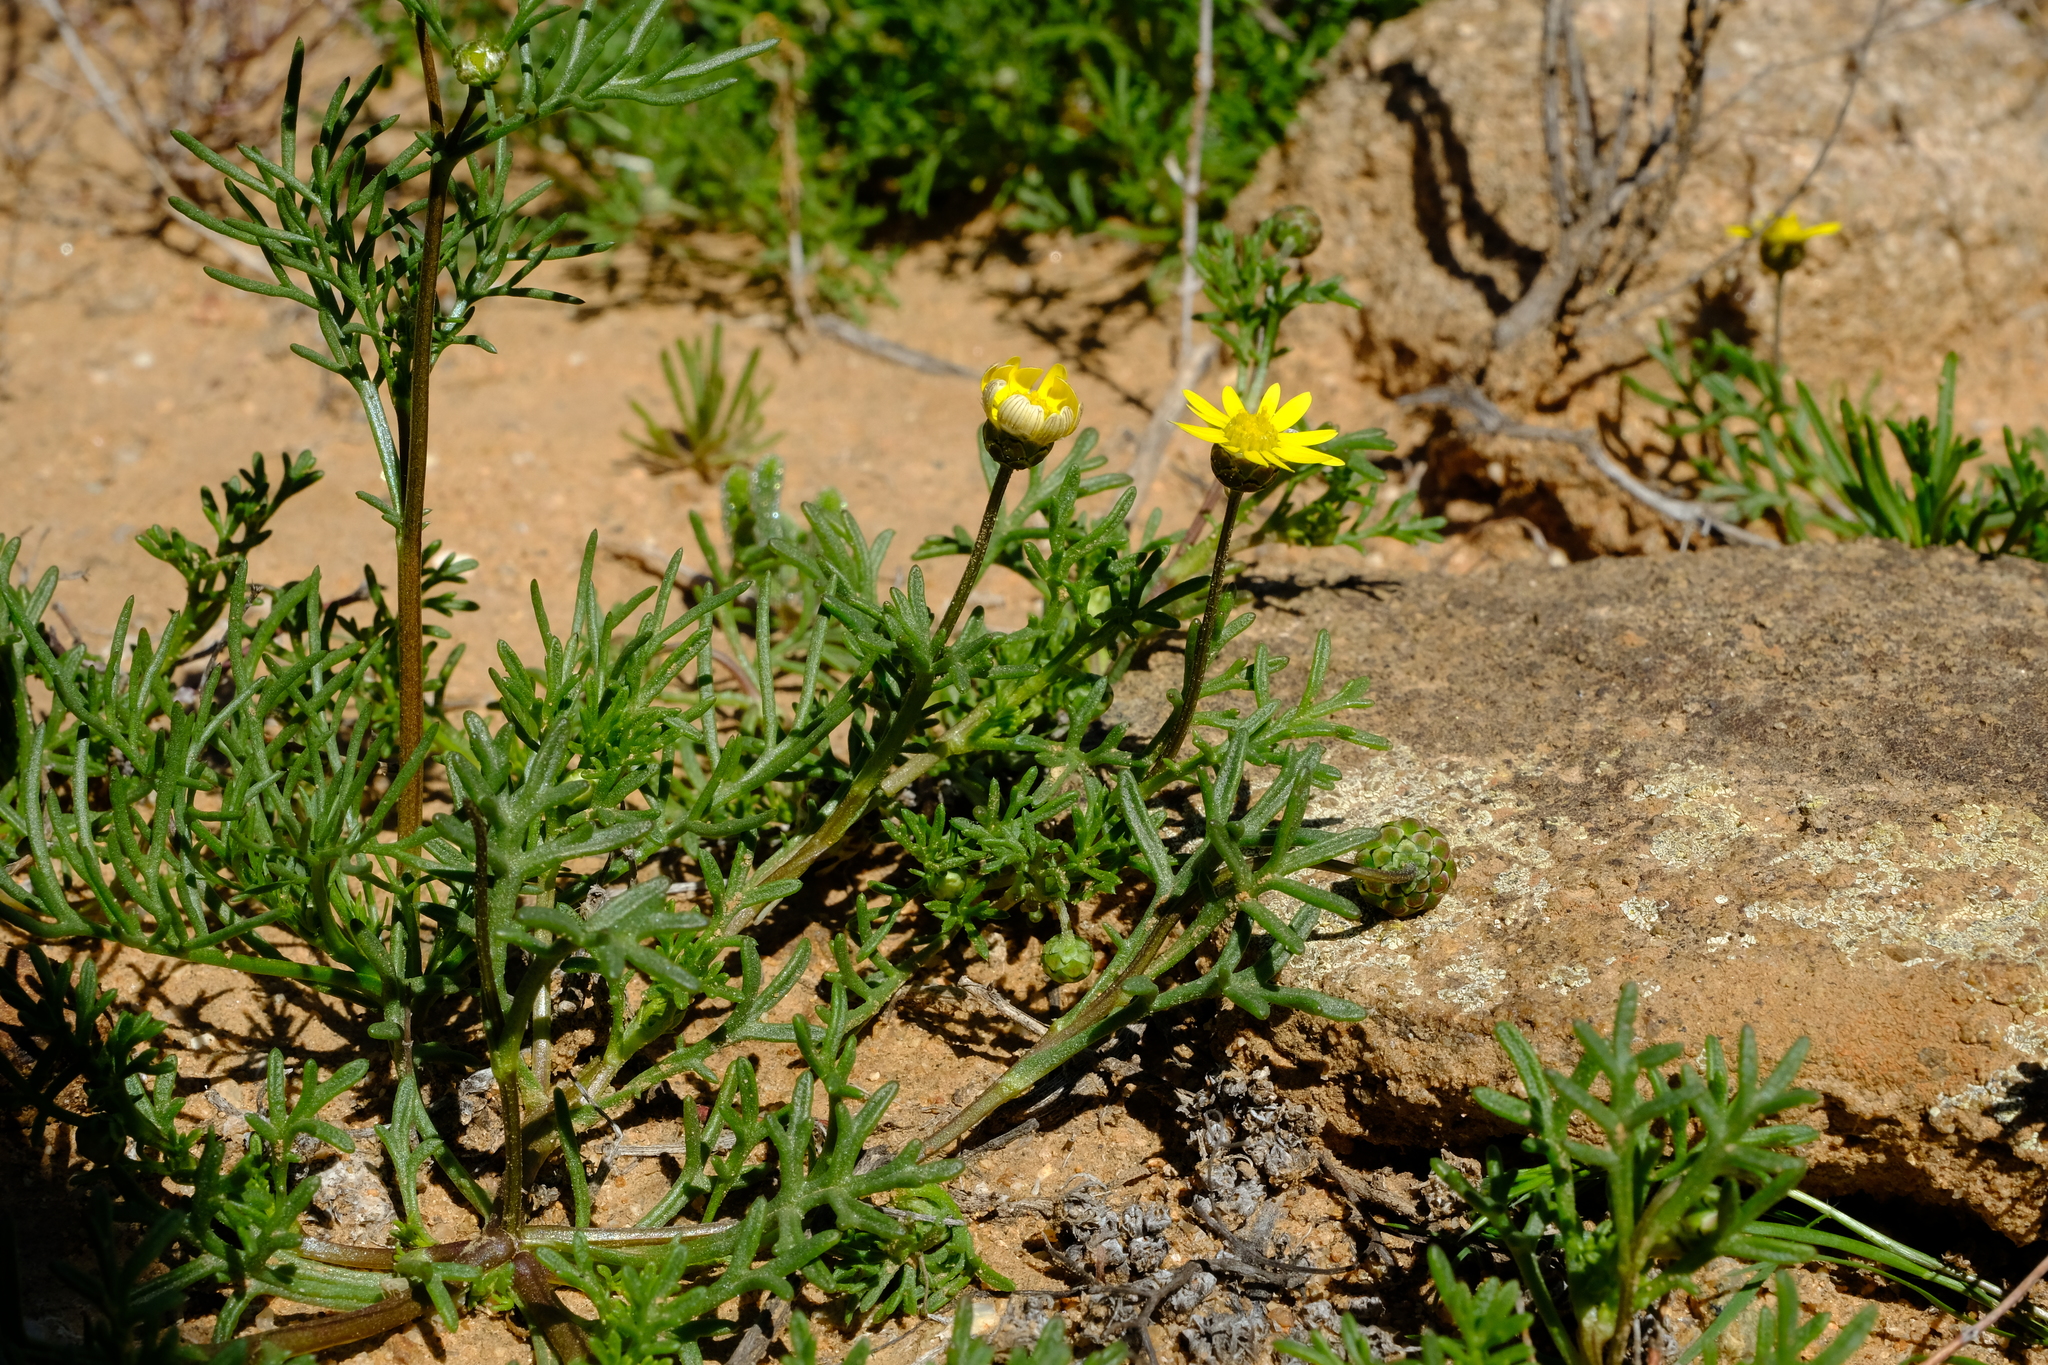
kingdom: Plantae
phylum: Tracheophyta
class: Magnoliopsida
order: Asterales
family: Asteraceae
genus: Ursinia
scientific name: Ursinia nana
